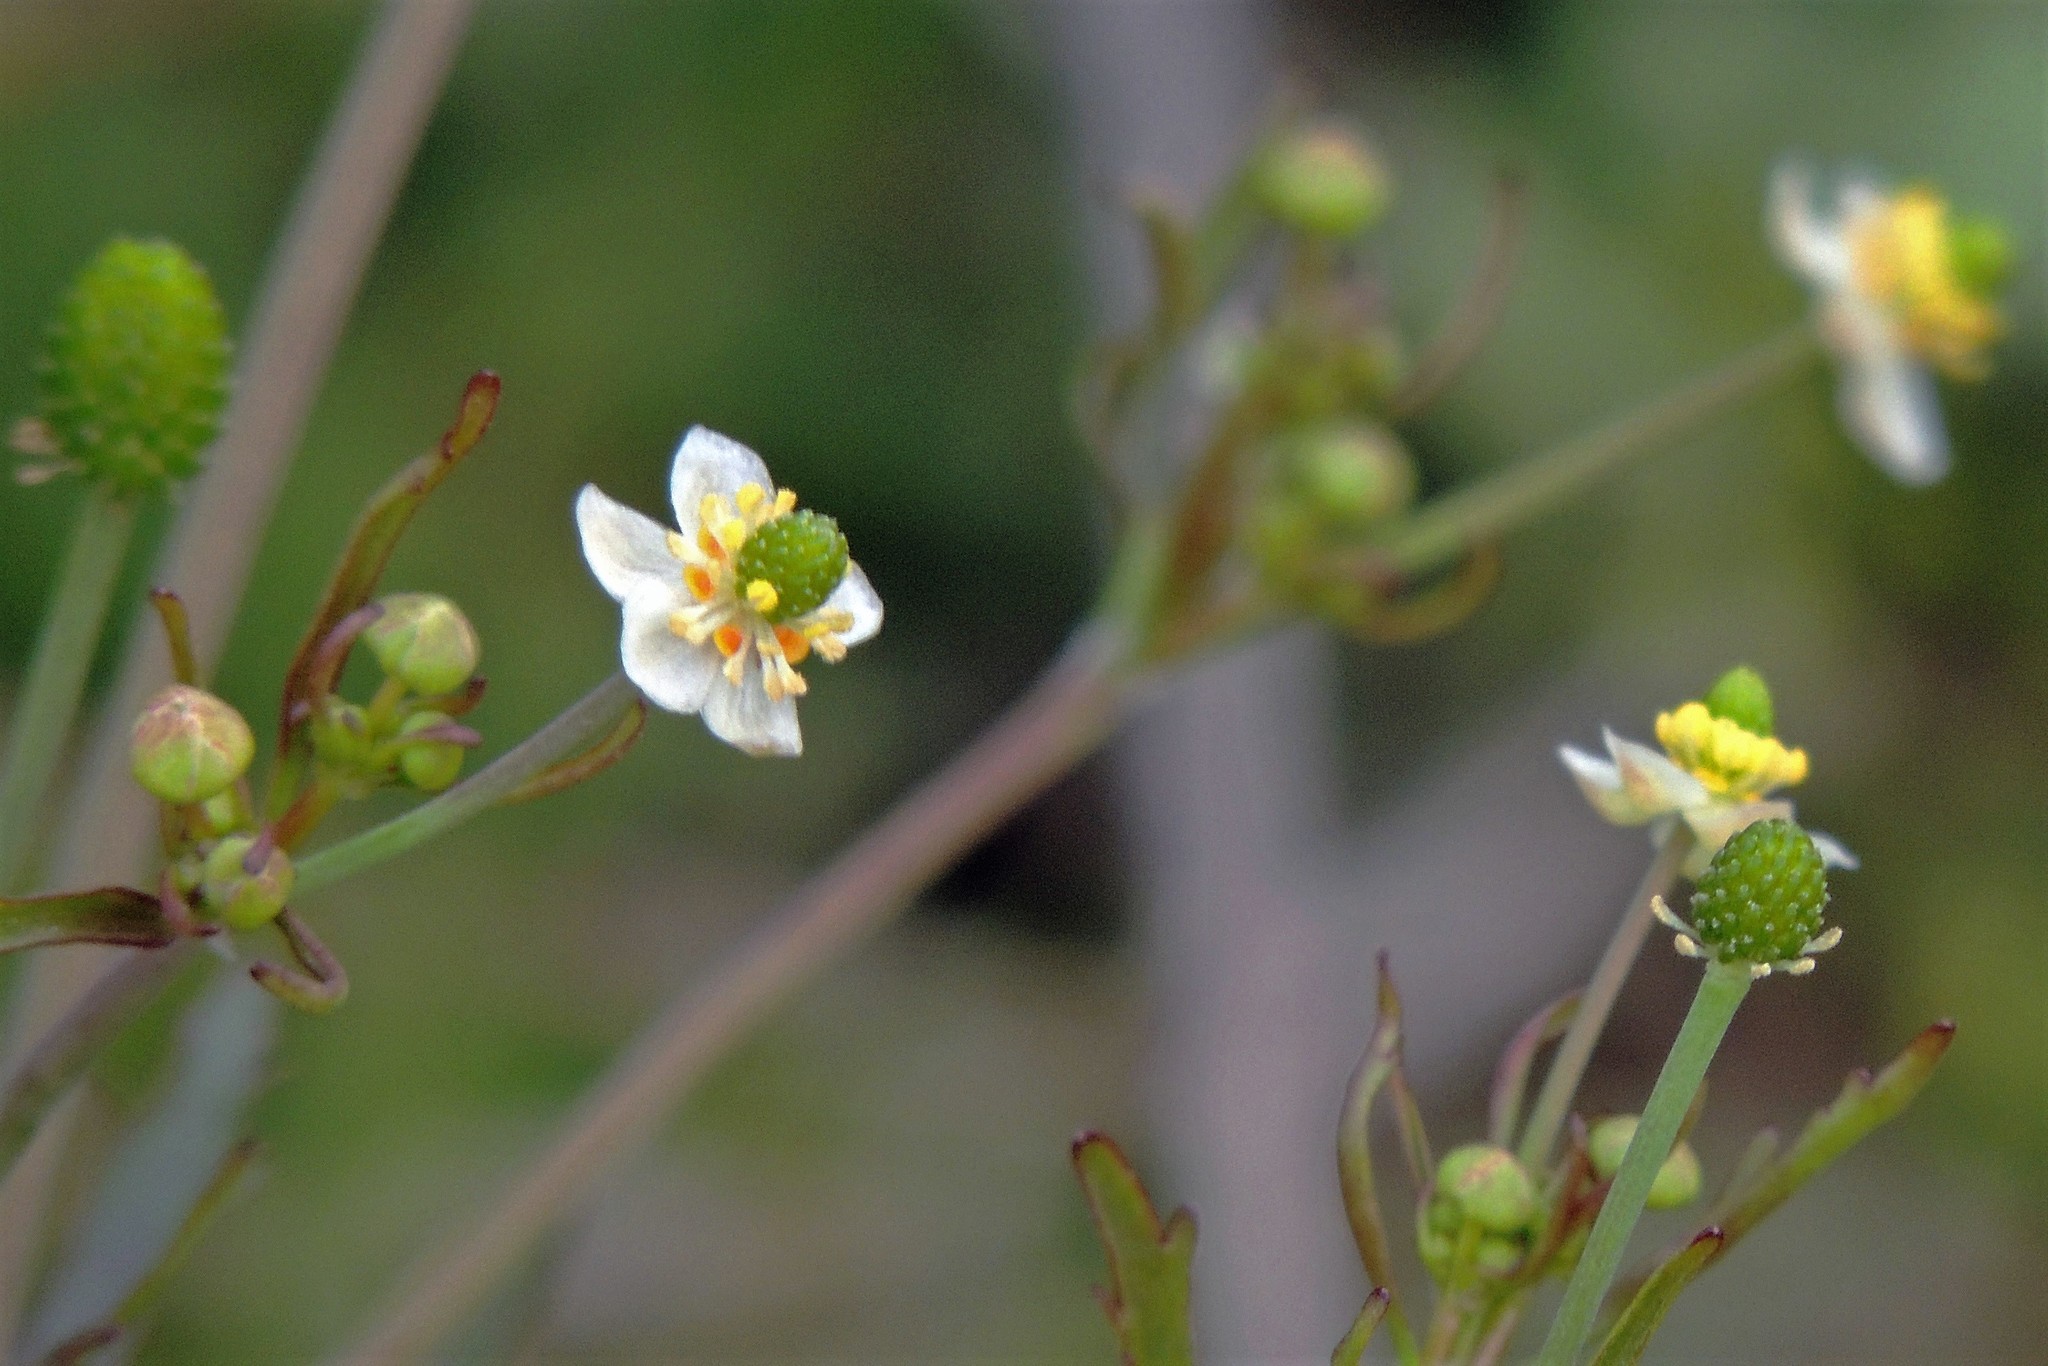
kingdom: Plantae
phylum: Tracheophyta
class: Magnoliopsida
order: Ranunculales
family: Ranunculaceae
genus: Ranunculus
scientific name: Ranunculus apiifolius
